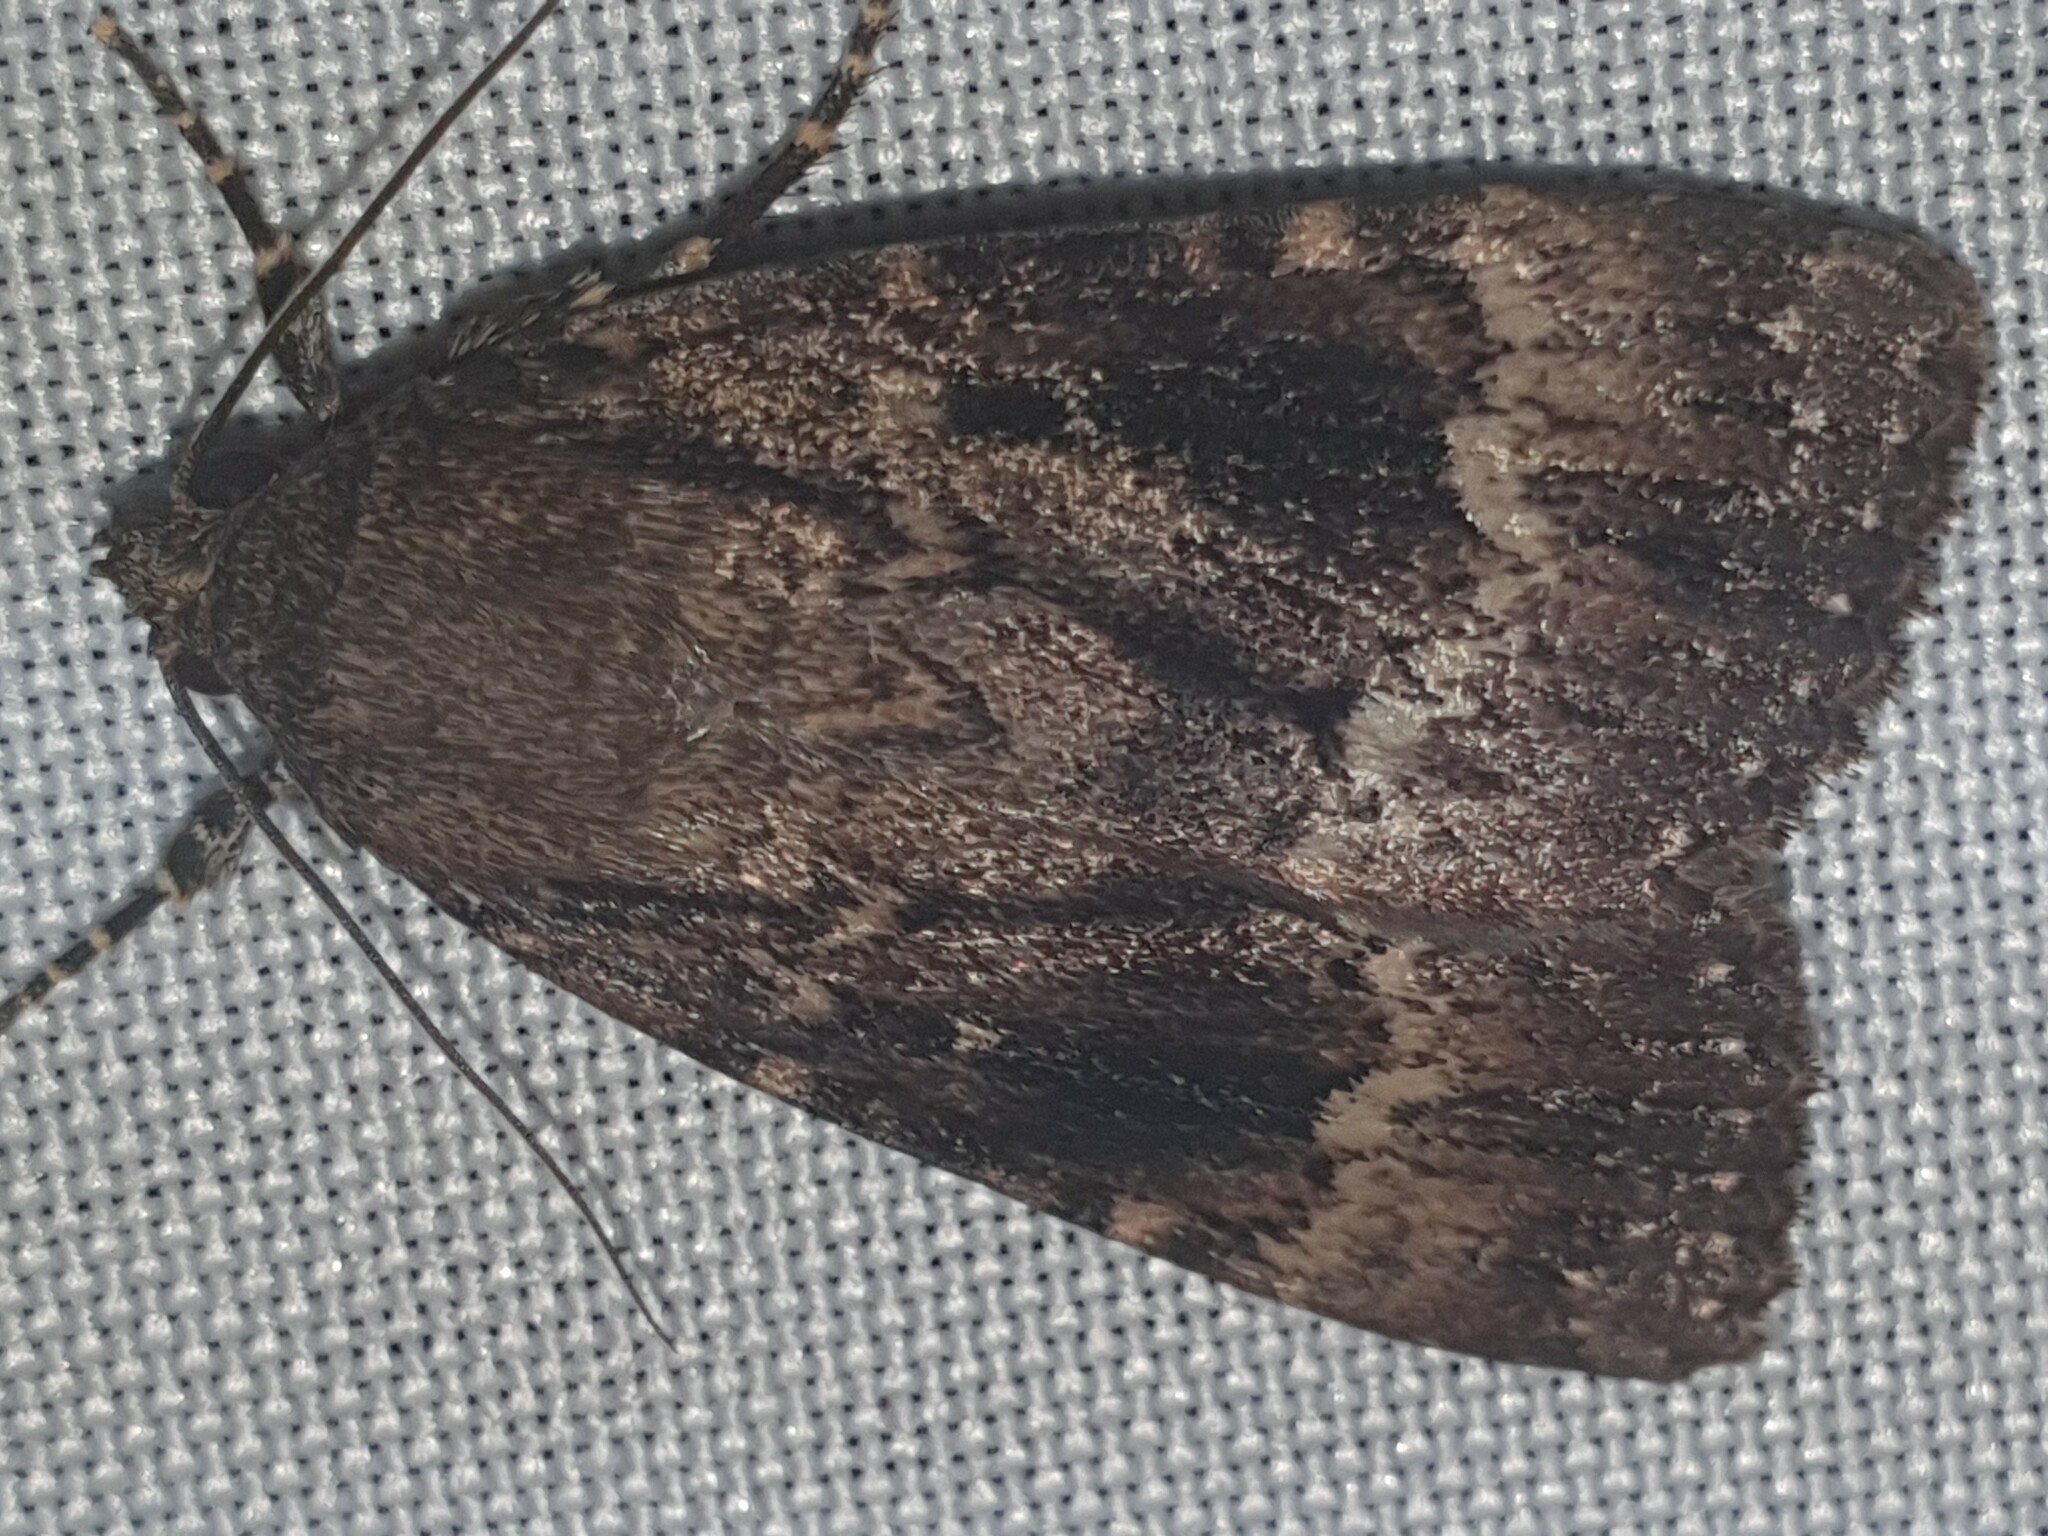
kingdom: Animalia
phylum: Arthropoda
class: Insecta
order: Lepidoptera
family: Noctuidae
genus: Amphipyra
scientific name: Amphipyra pyramidea
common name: Copper underwing
